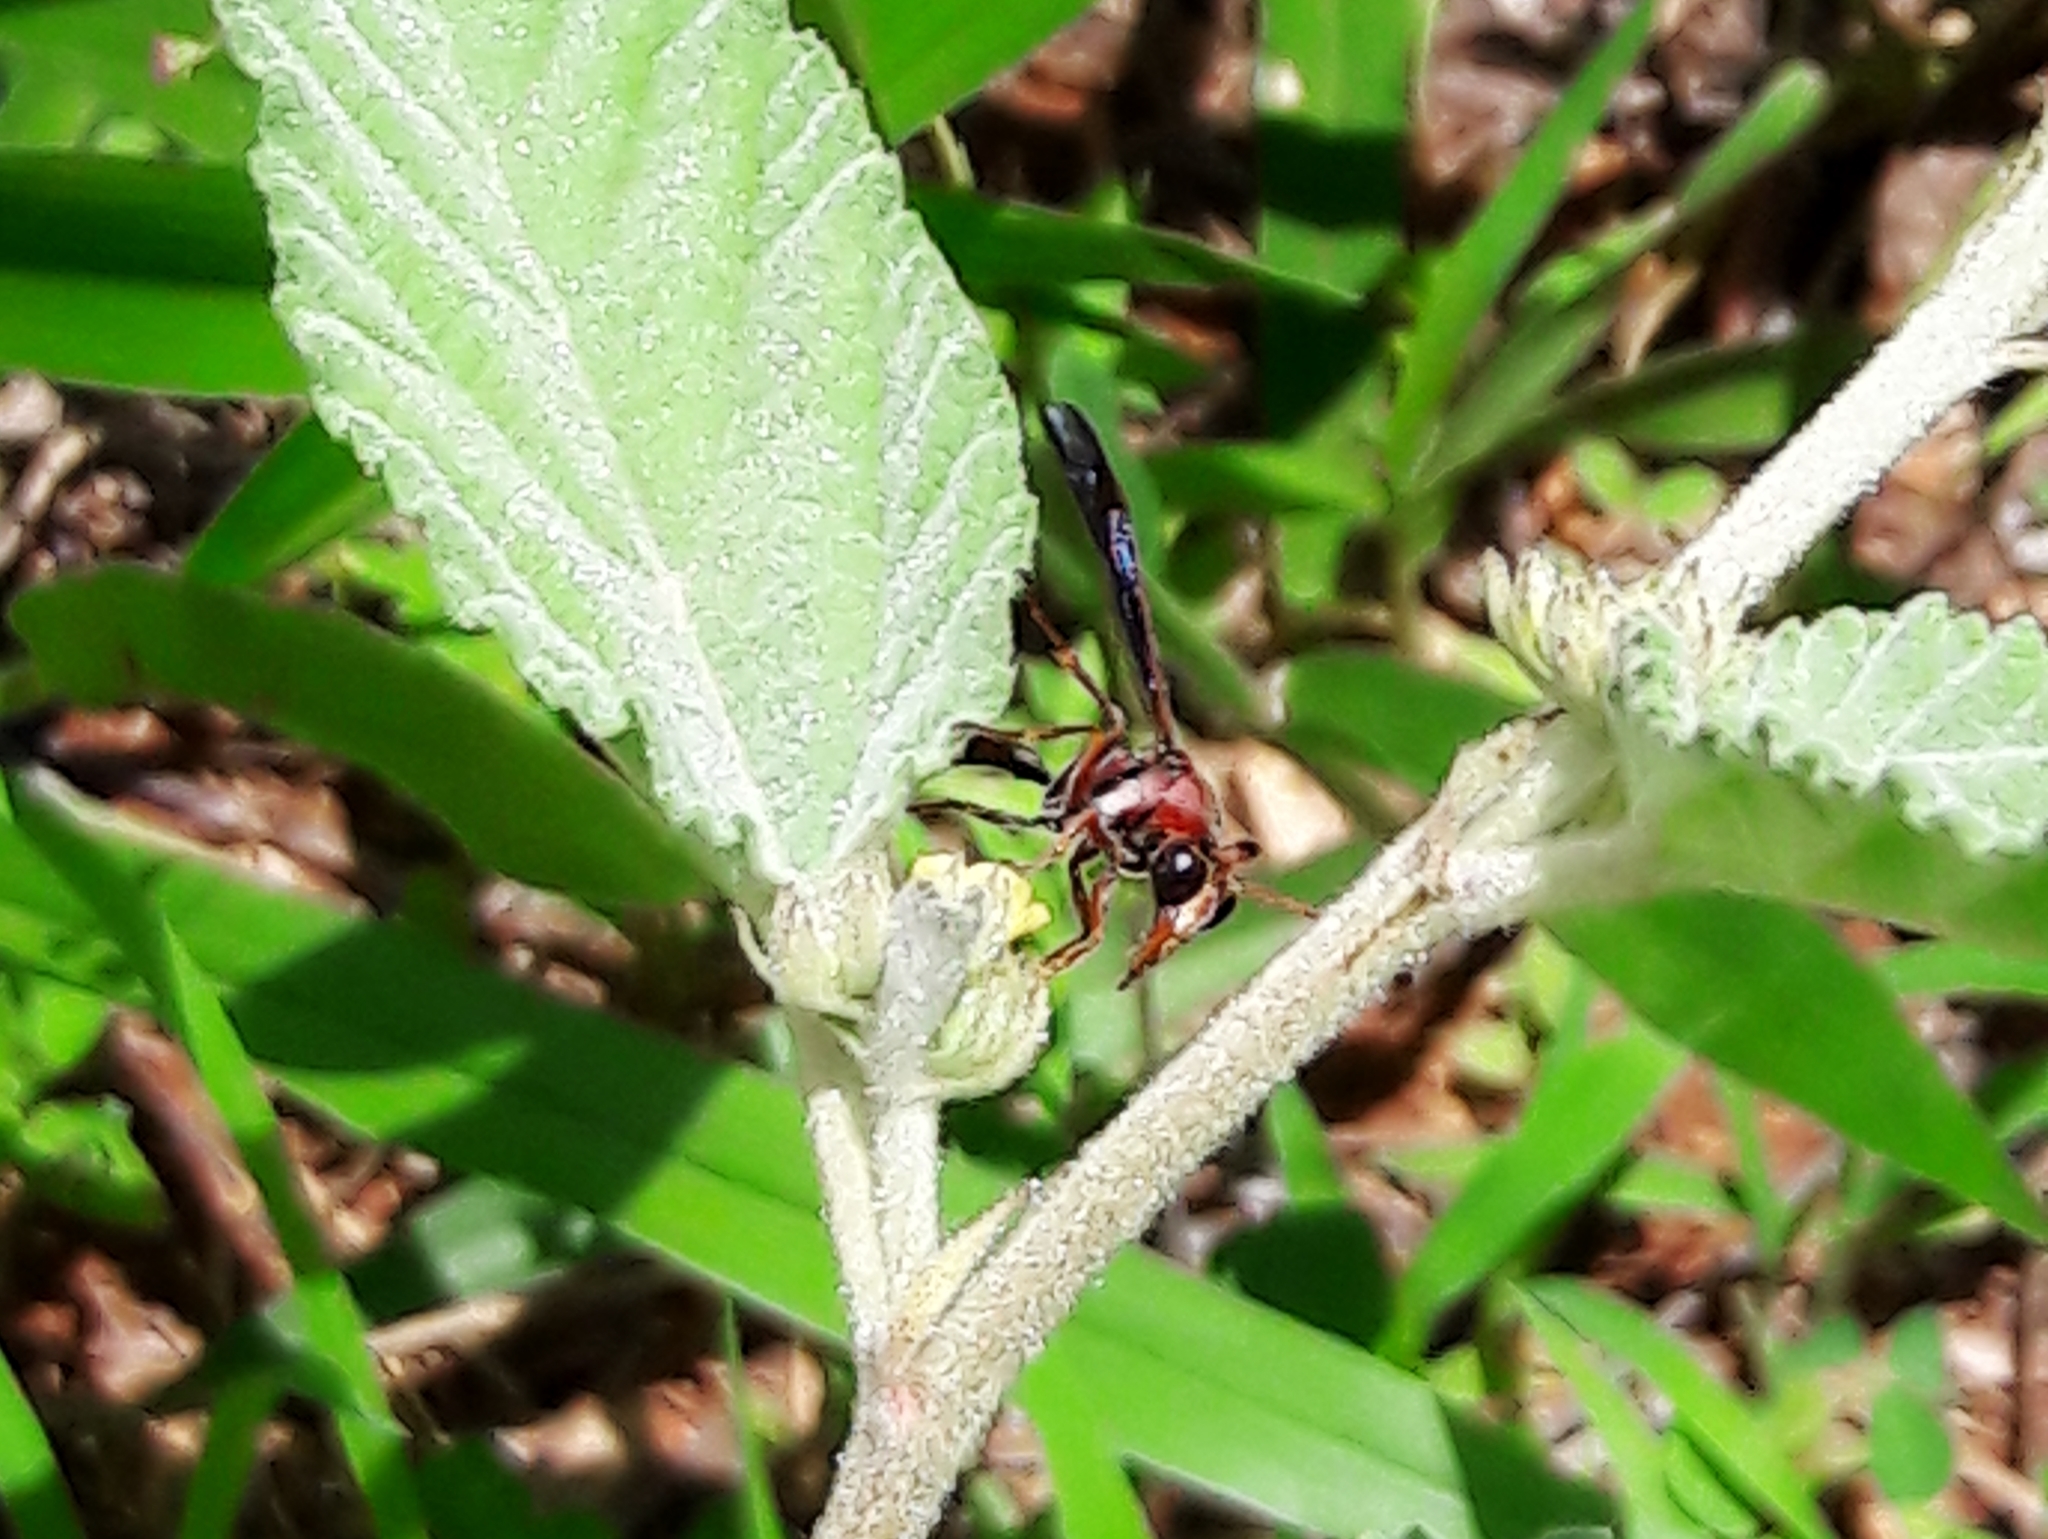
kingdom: Animalia
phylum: Arthropoda
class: Insecta
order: Hymenoptera
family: Eumenidae
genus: Zeta
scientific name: Zeta argillaceum
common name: Potter wasp
